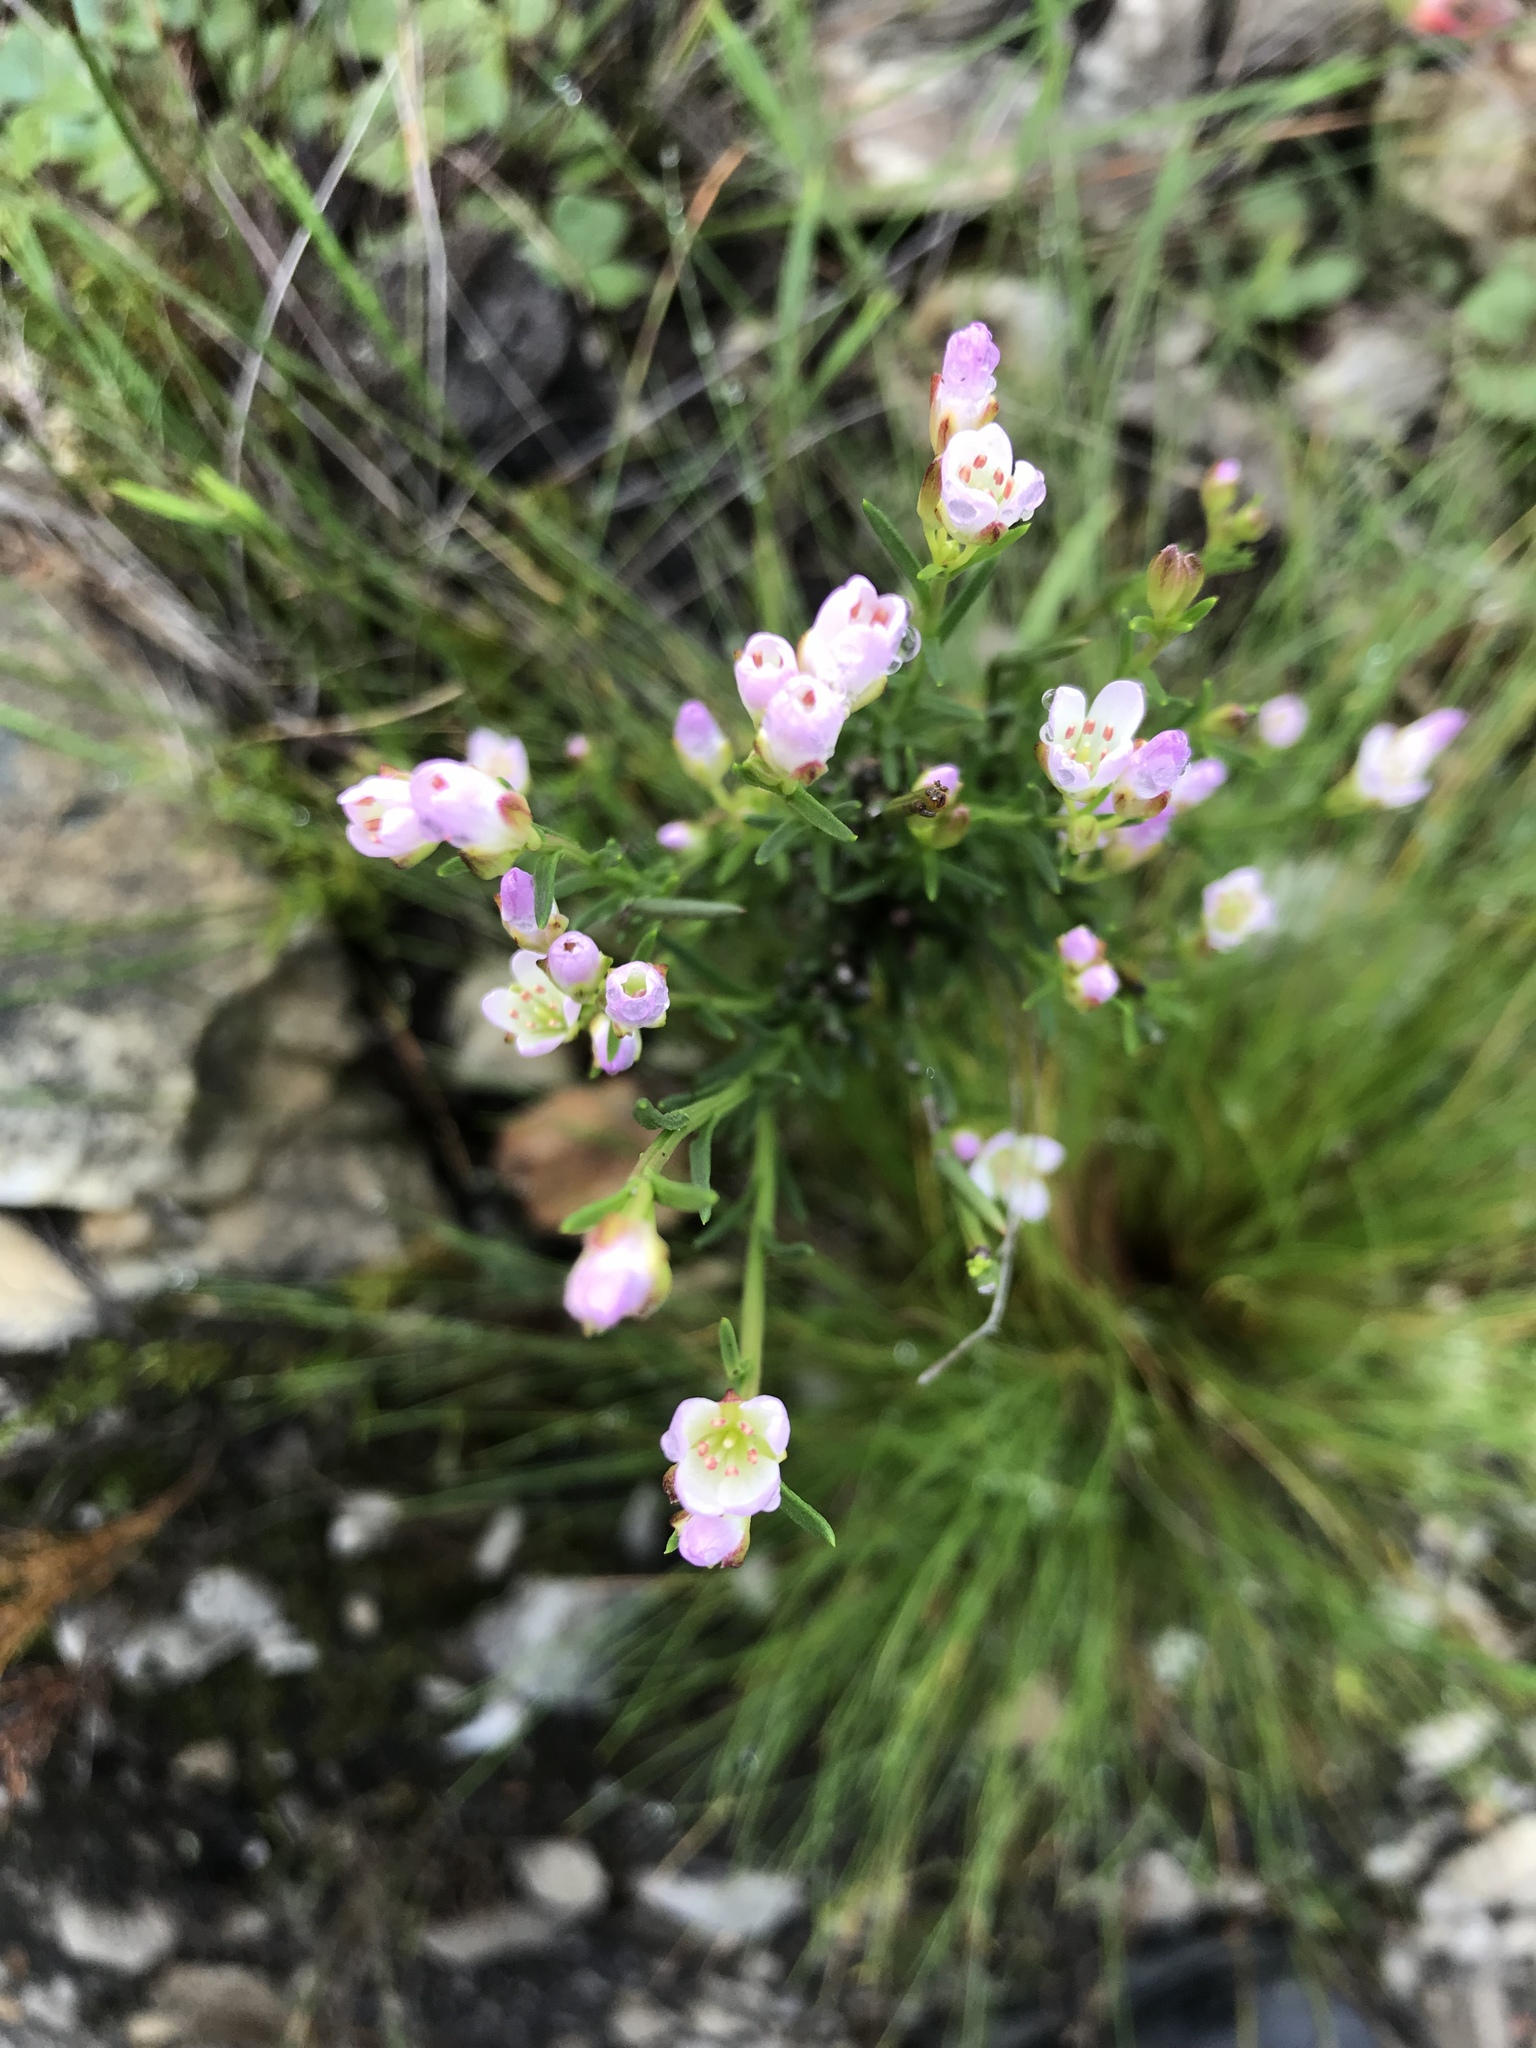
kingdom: Plantae
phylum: Tracheophyta
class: Magnoliopsida
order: Brassicales
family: Brassicaceae
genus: Heliophila
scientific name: Heliophila scoparia
